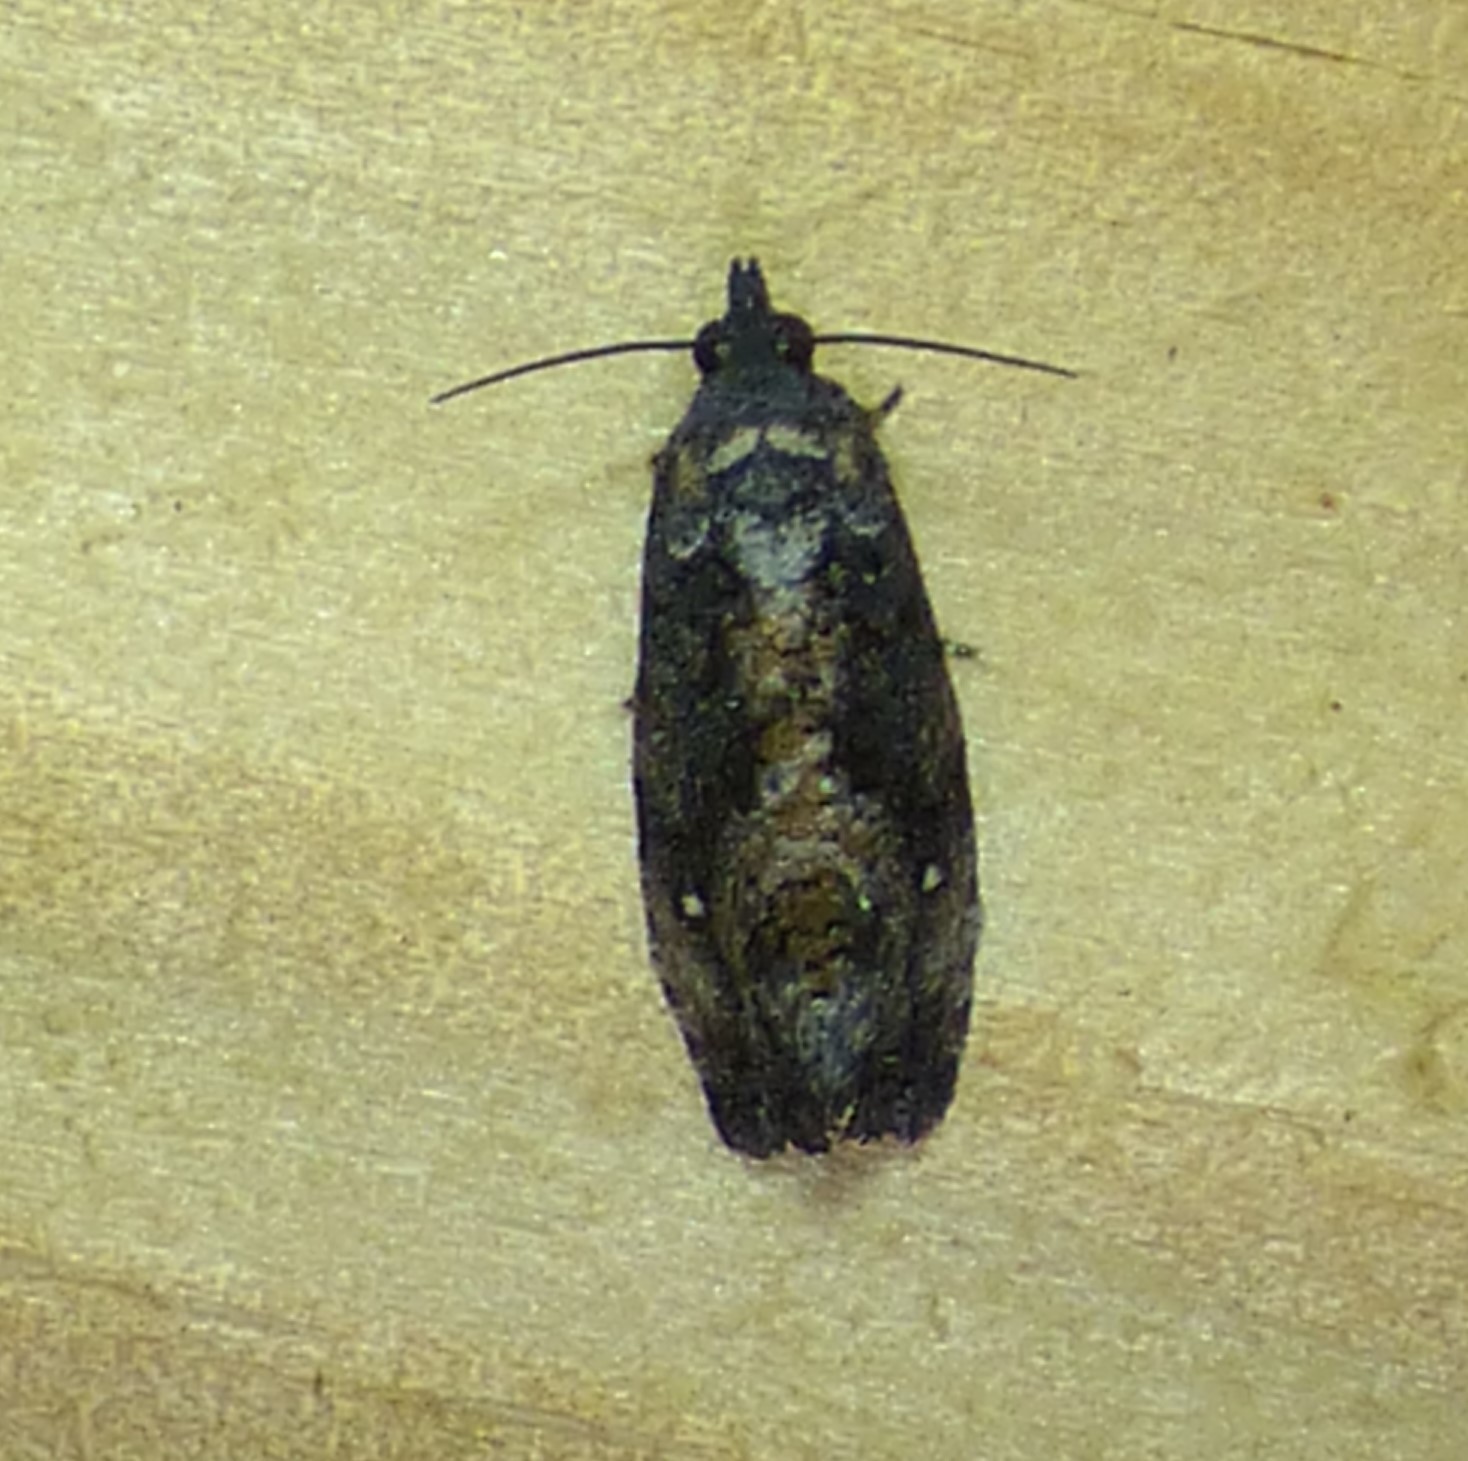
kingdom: Animalia
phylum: Arthropoda
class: Insecta
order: Lepidoptera
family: Tortricidae
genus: Gymnandrosoma
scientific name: Gymnandrosoma punctidiscanum
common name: Dotted ecdytolopha moth
